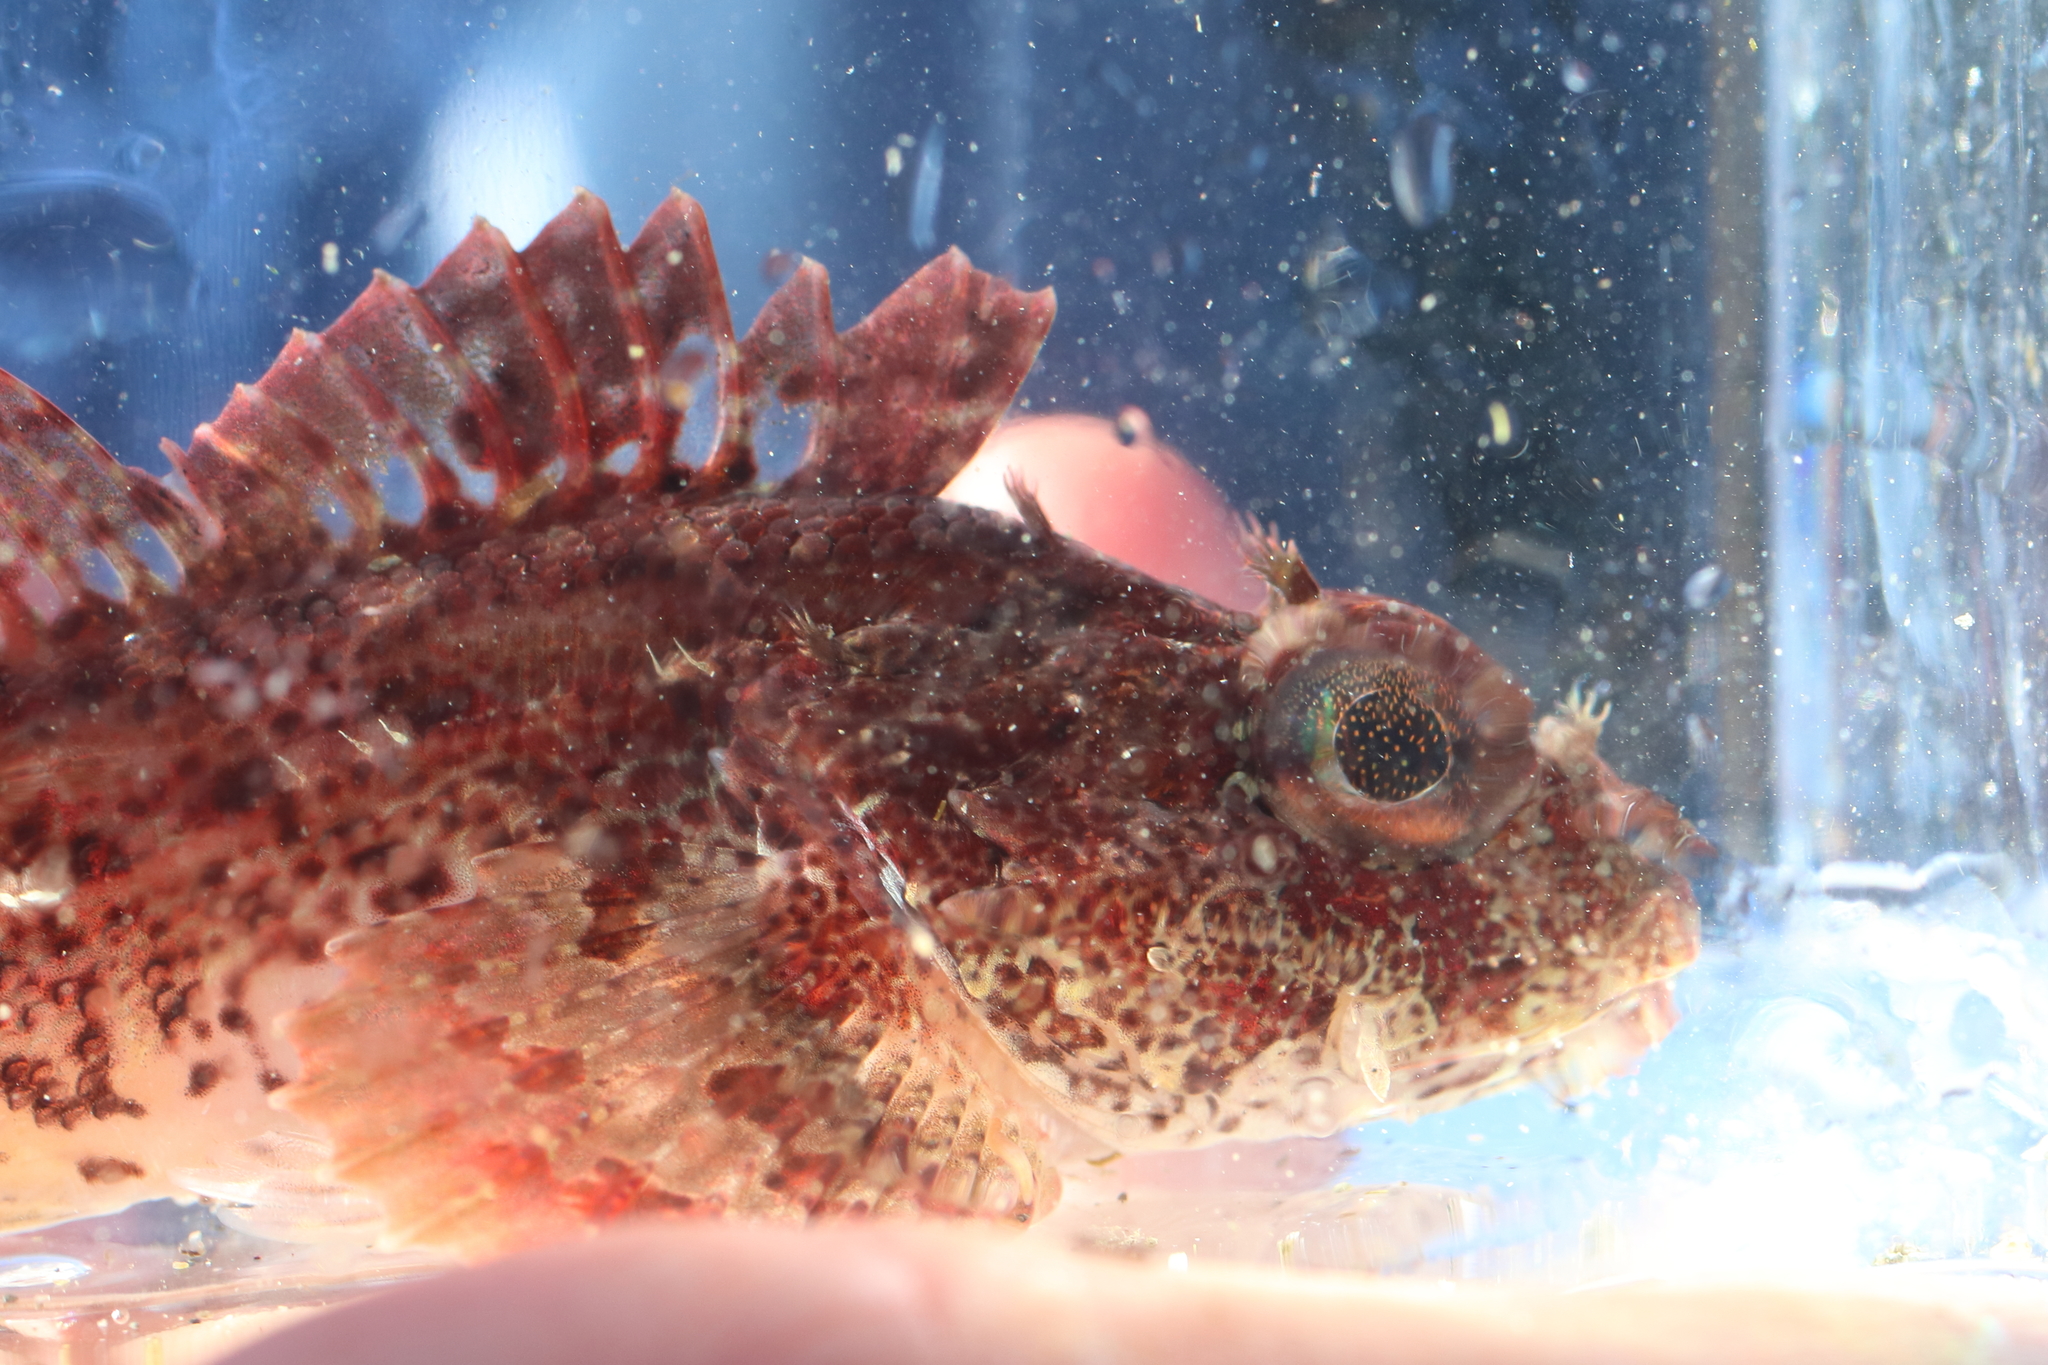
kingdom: Animalia
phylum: Chordata
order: Scorpaeniformes
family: Cottidae
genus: Hemilepidotus
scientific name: Hemilepidotus hemilepidotus
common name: Red irish lord
